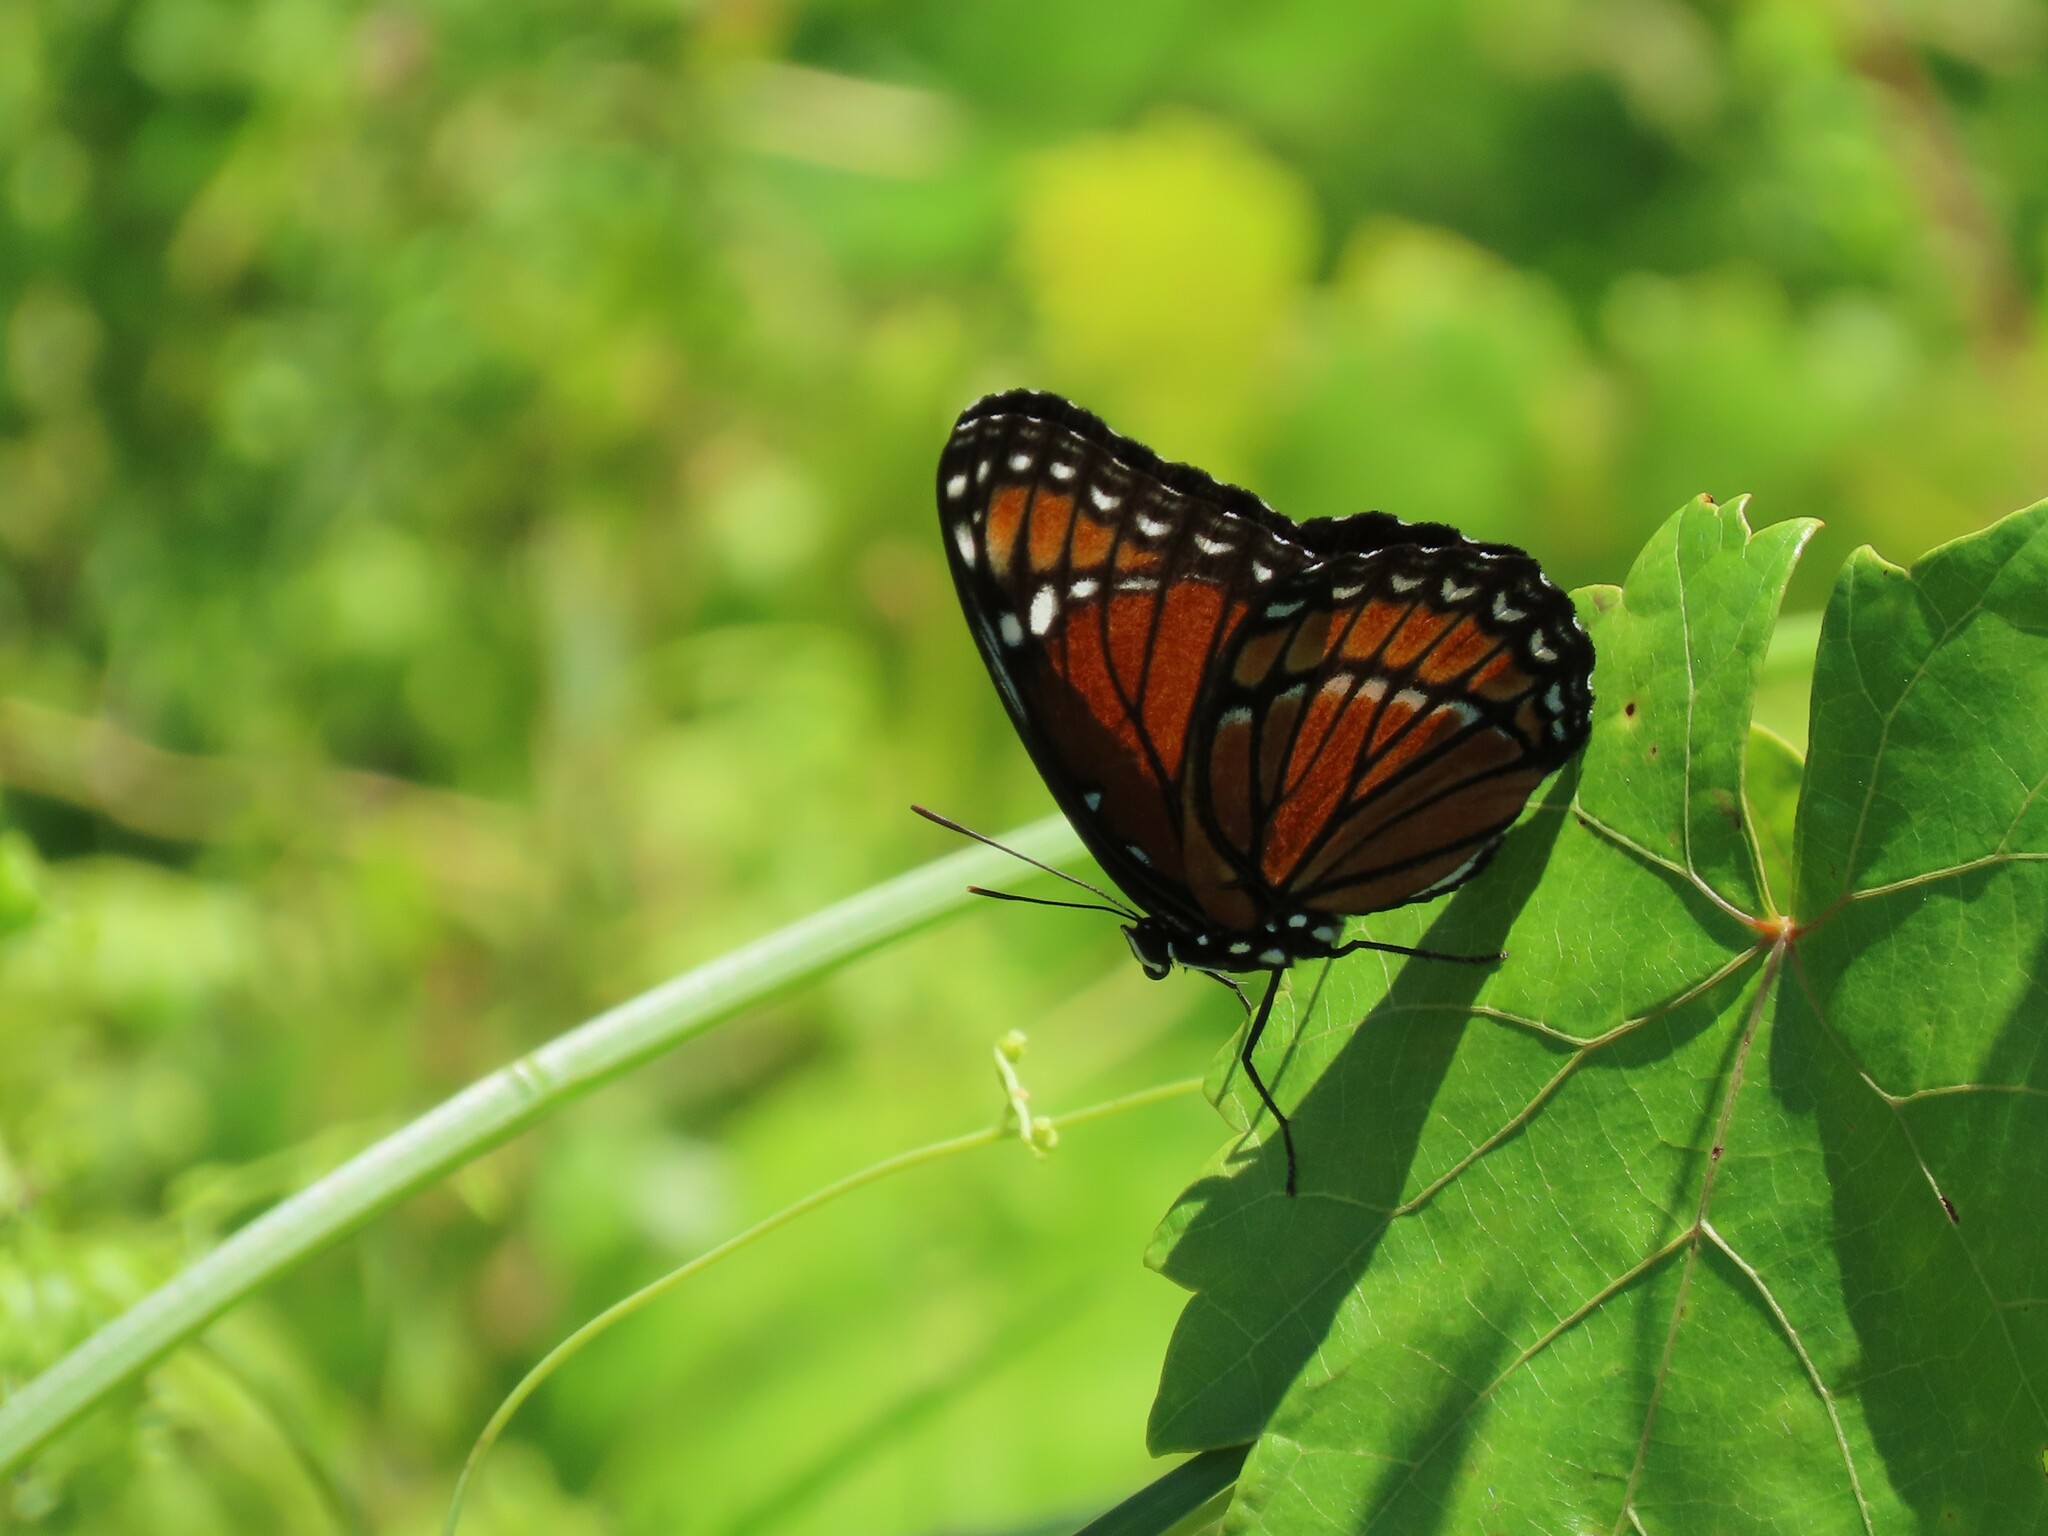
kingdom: Animalia
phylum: Arthropoda
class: Insecta
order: Lepidoptera
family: Nymphalidae
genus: Limenitis
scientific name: Limenitis archippus
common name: Viceroy
